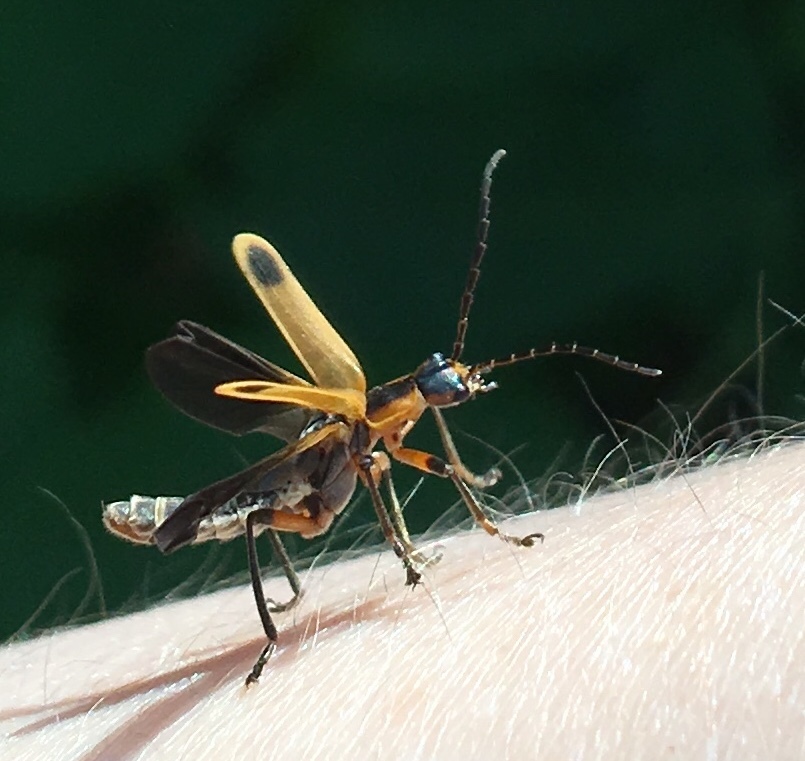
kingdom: Animalia
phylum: Arthropoda
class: Insecta
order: Coleoptera
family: Cantharidae
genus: Chauliognathus
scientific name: Chauliognathus marginatus
